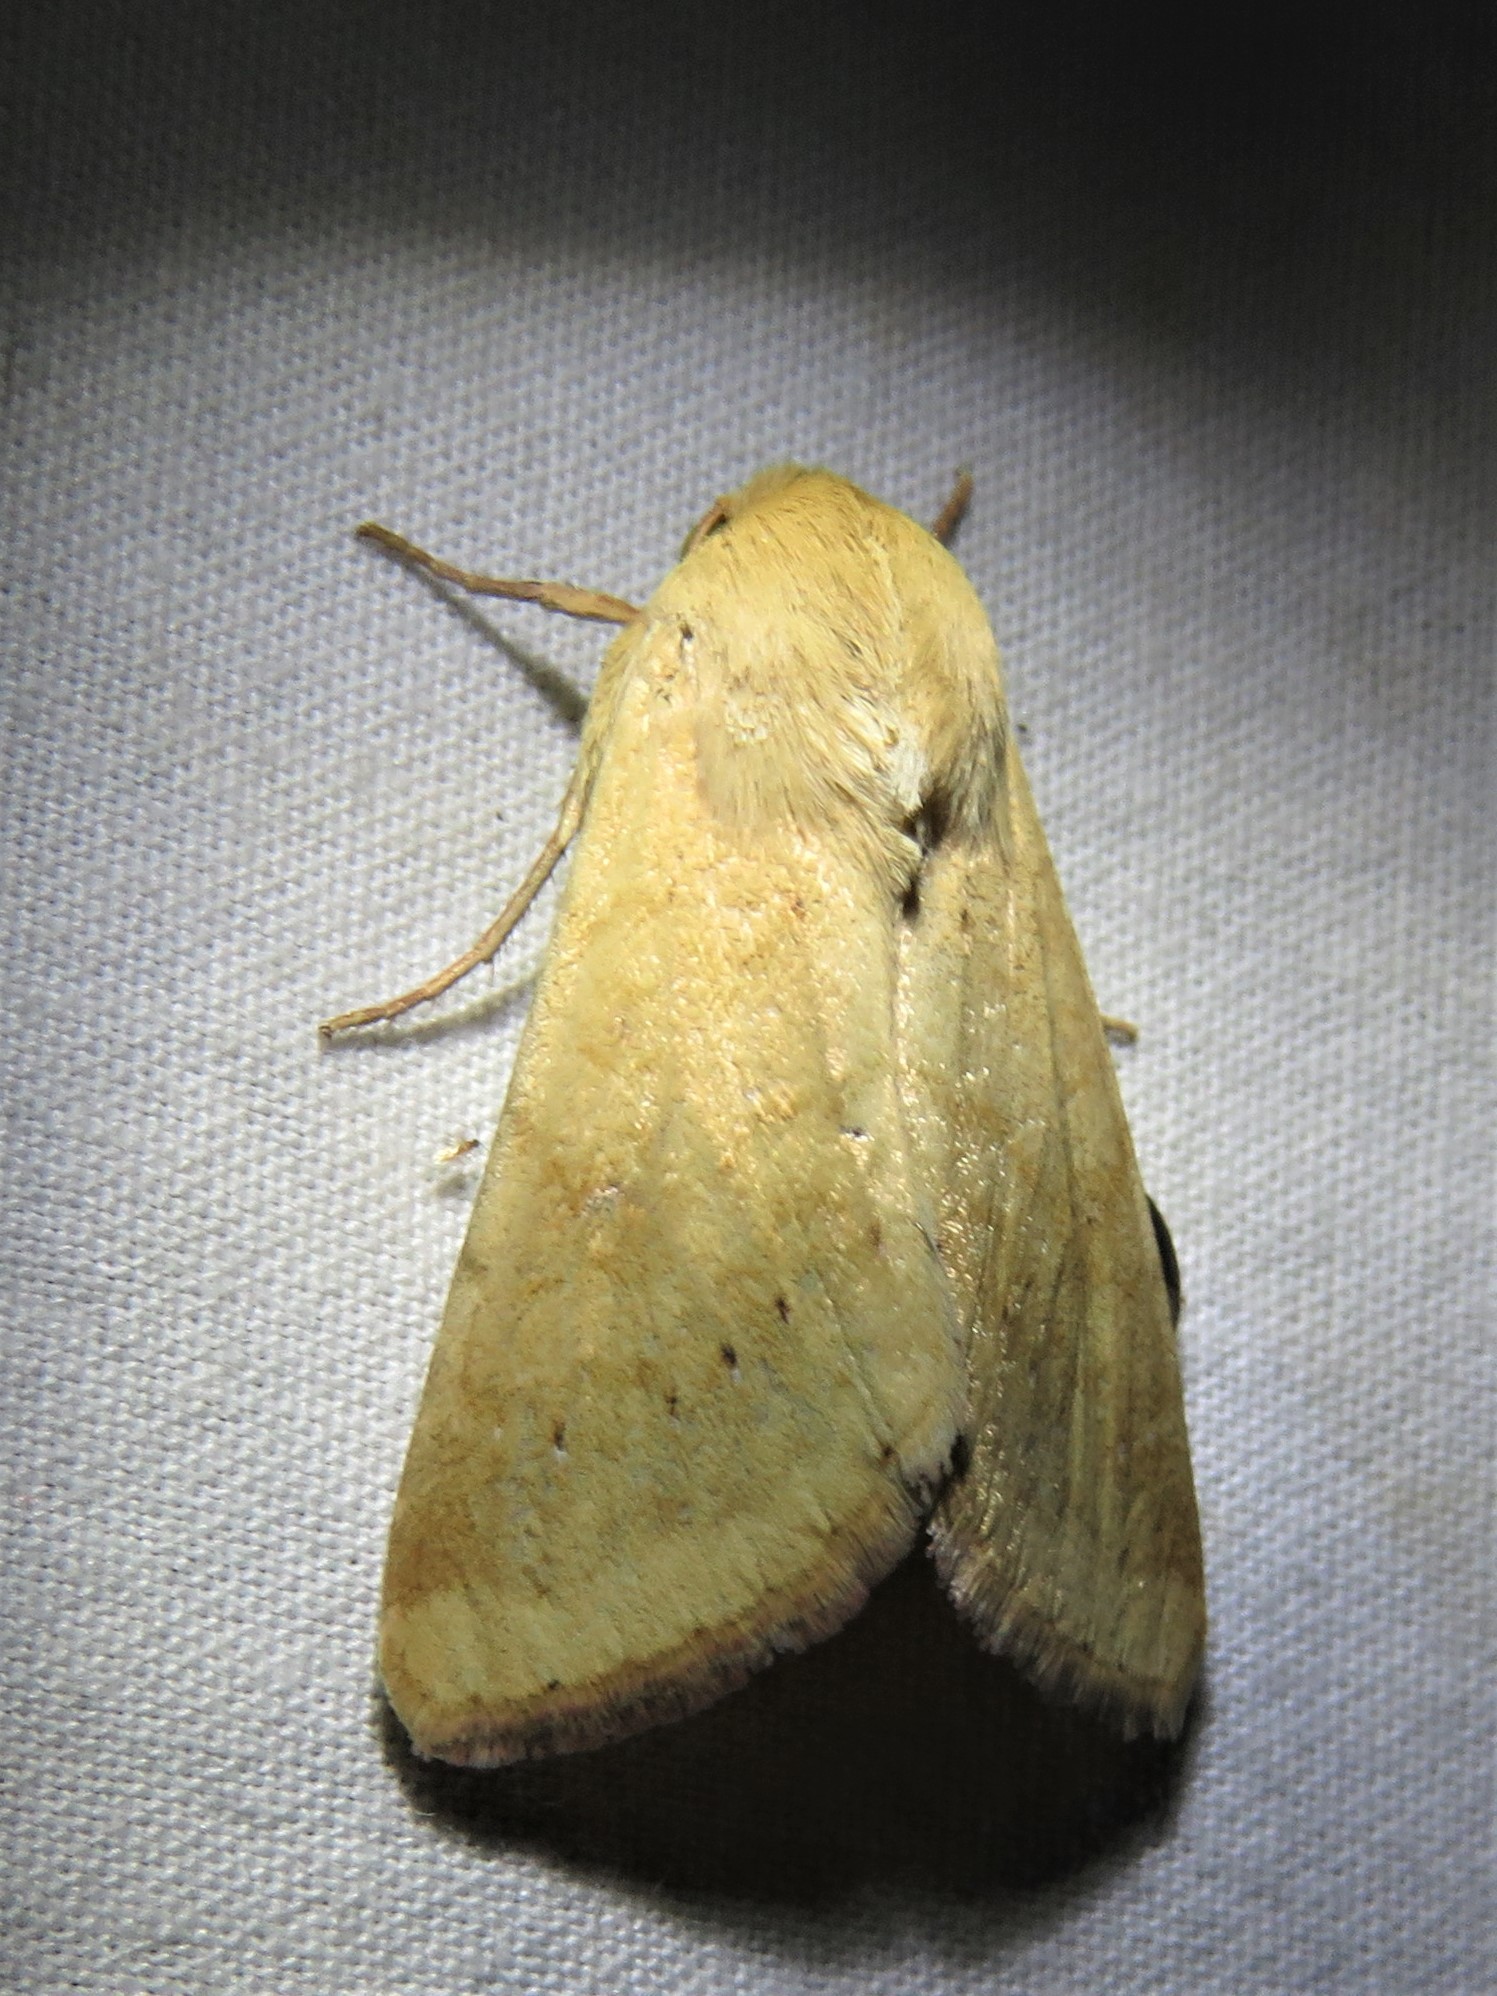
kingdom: Animalia
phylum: Arthropoda
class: Insecta
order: Lepidoptera
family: Noctuidae
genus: Helicoverpa
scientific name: Helicoverpa zea
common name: Bollworm
